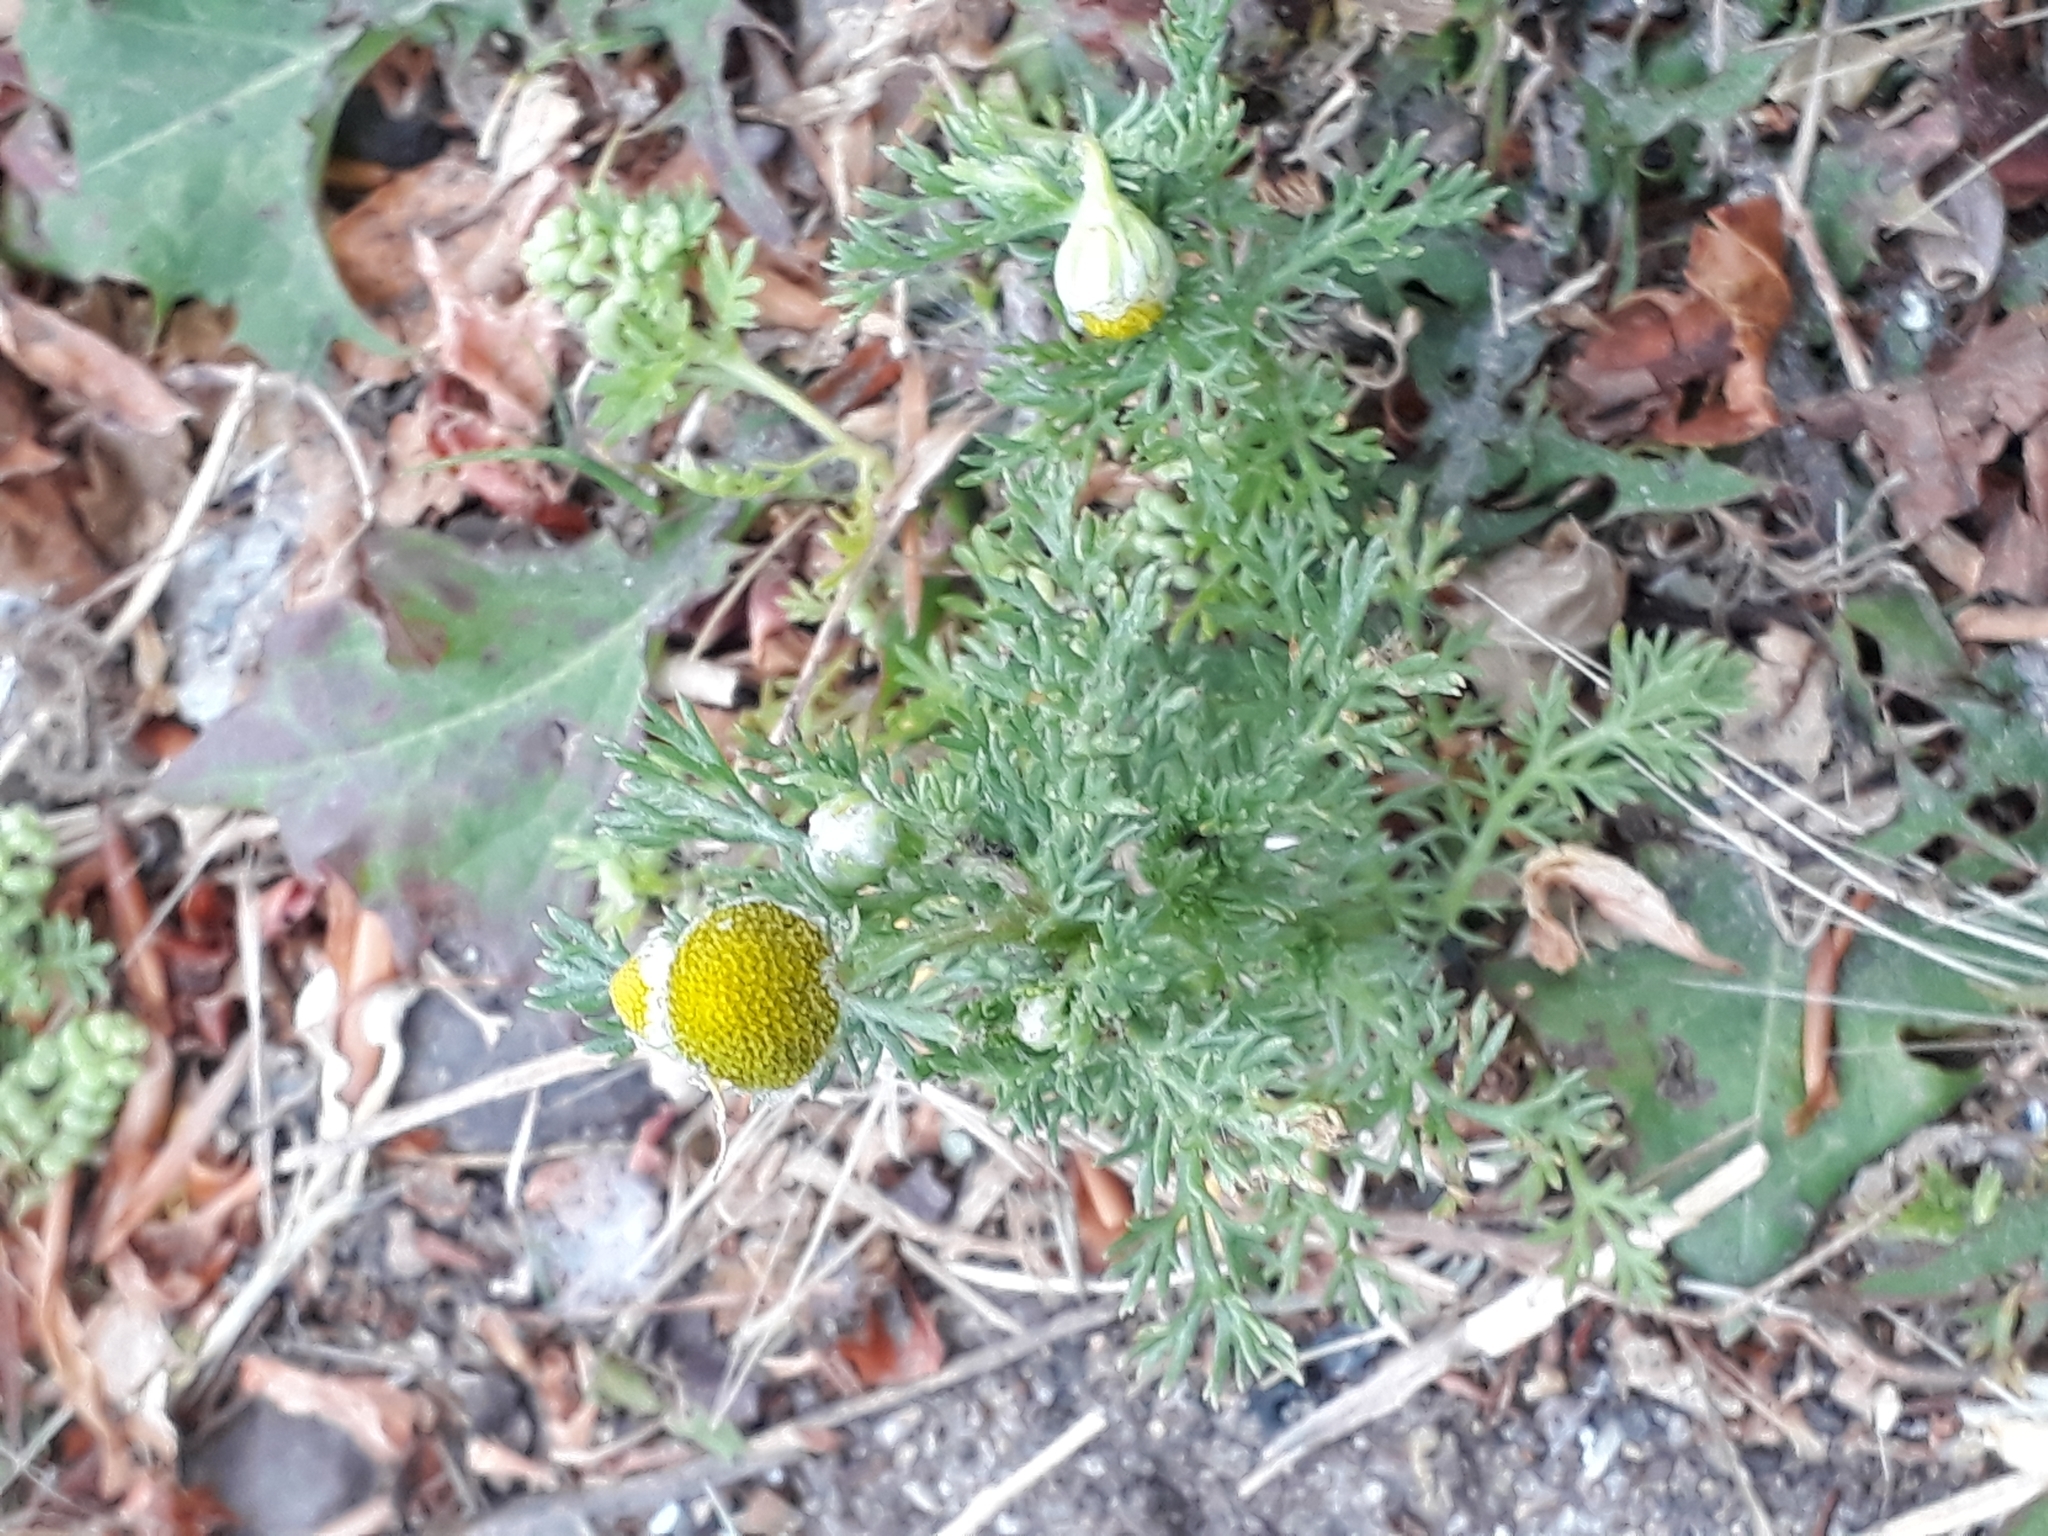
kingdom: Plantae
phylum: Tracheophyta
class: Magnoliopsida
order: Asterales
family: Asteraceae
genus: Matricaria
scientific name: Matricaria discoidea
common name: Disc mayweed
